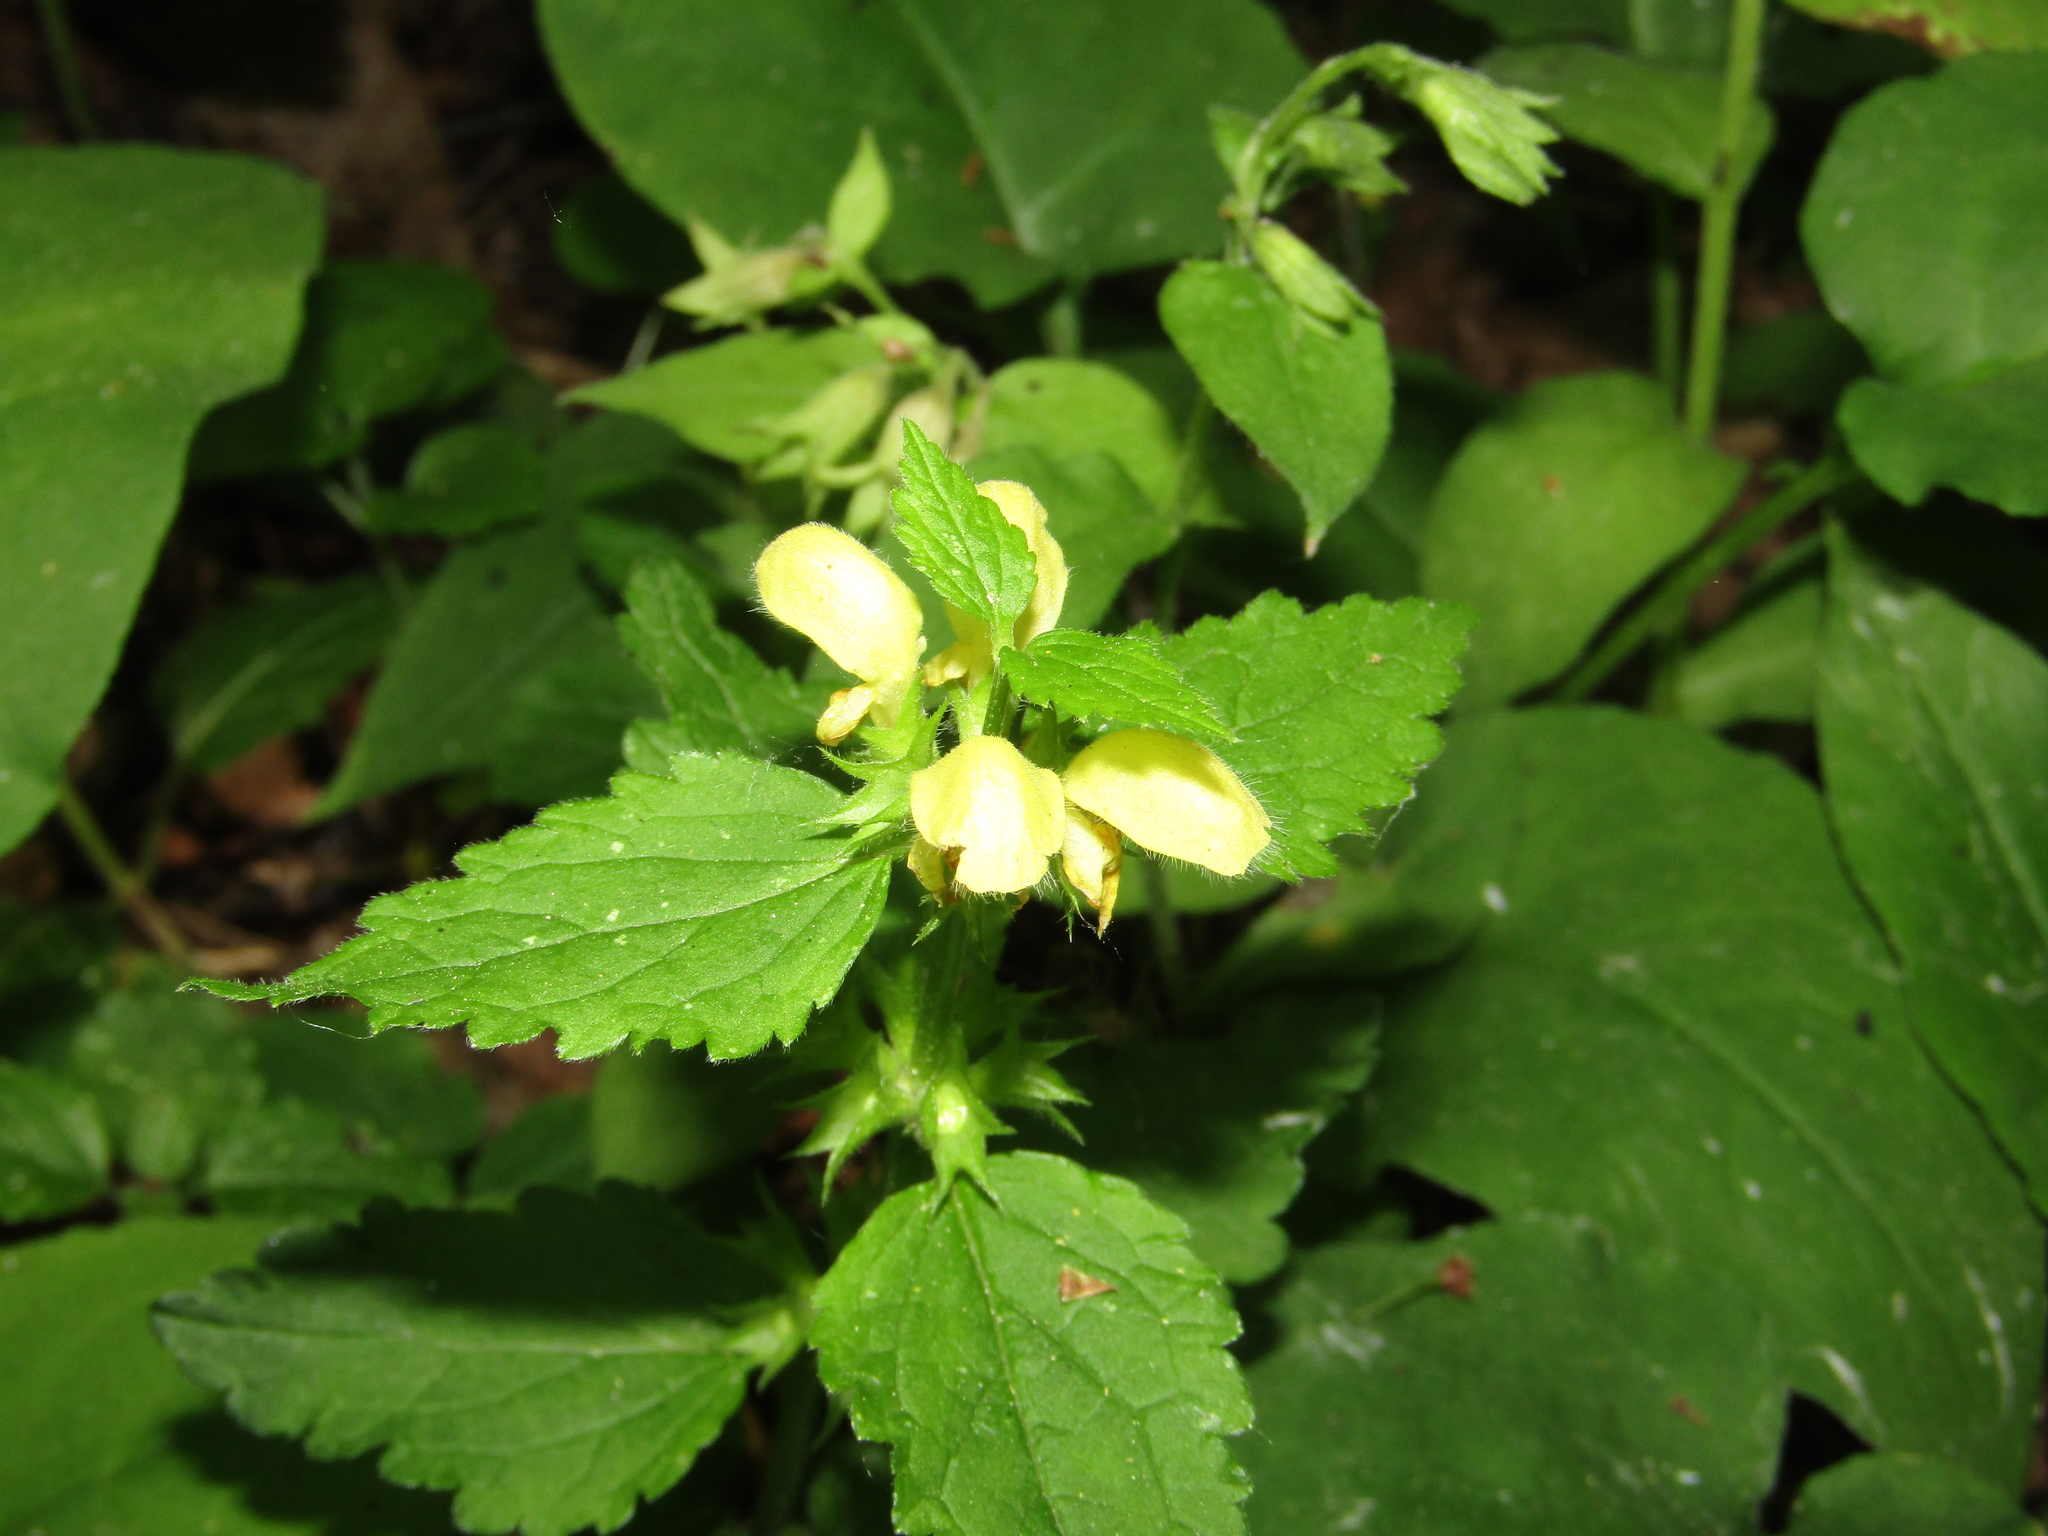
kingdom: Plantae
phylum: Tracheophyta
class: Magnoliopsida
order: Lamiales
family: Lamiaceae
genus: Lamium
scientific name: Lamium galeobdolon
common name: Yellow archangel
